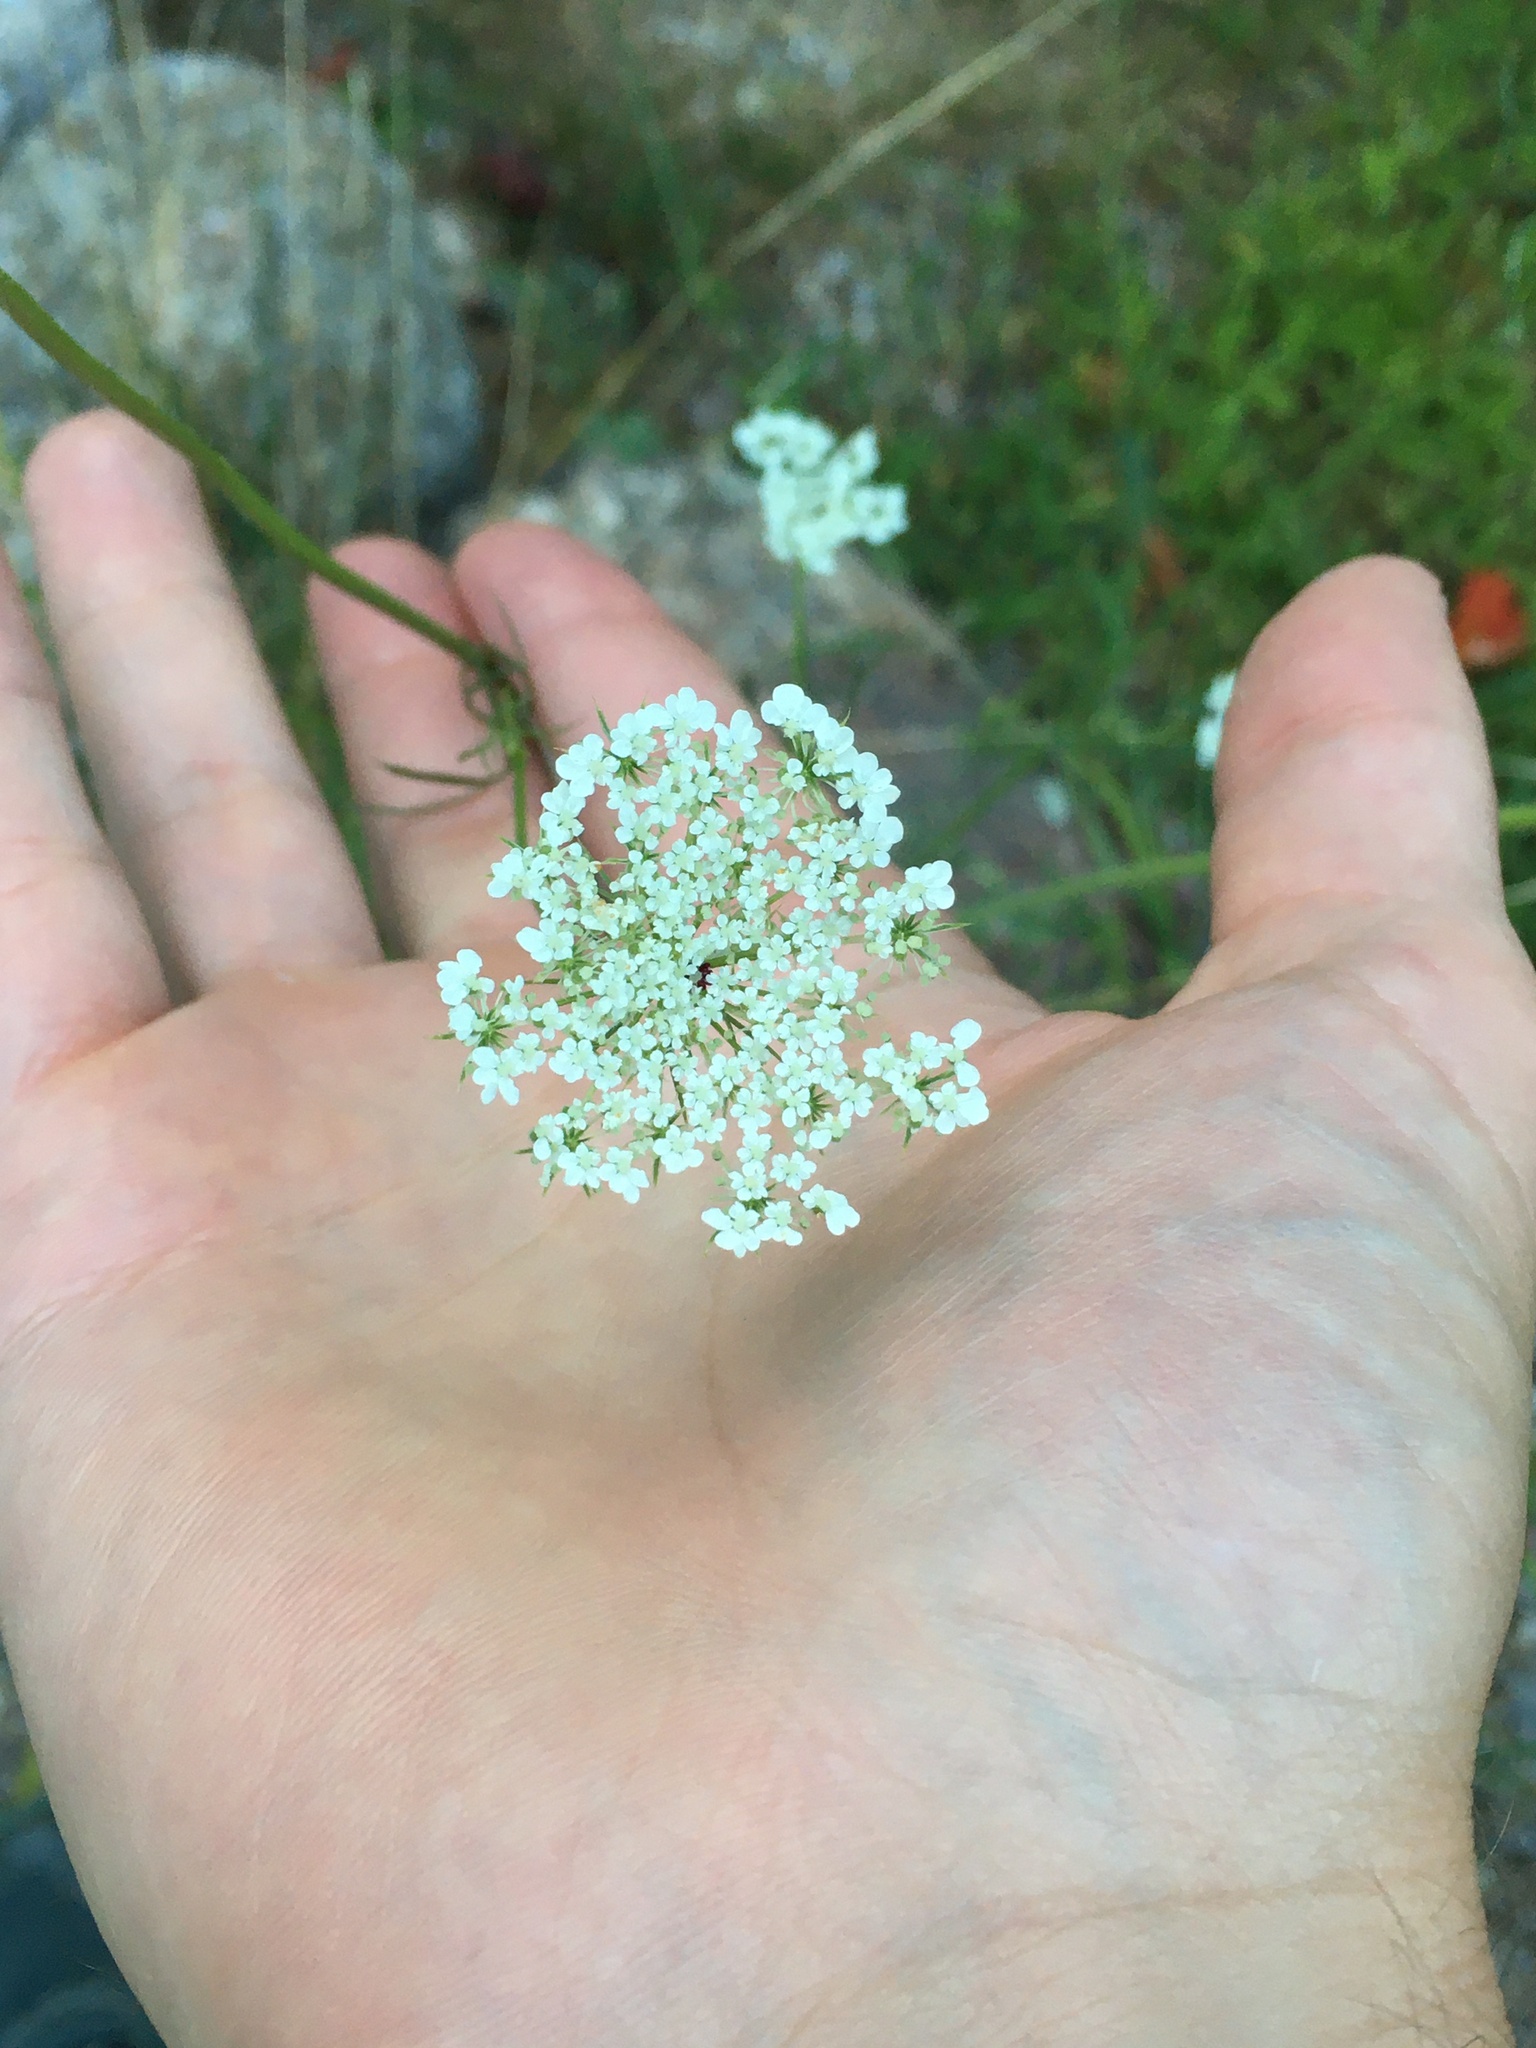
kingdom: Plantae
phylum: Tracheophyta
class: Magnoliopsida
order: Apiales
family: Apiaceae
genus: Daucus
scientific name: Daucus carota
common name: Wild carrot
